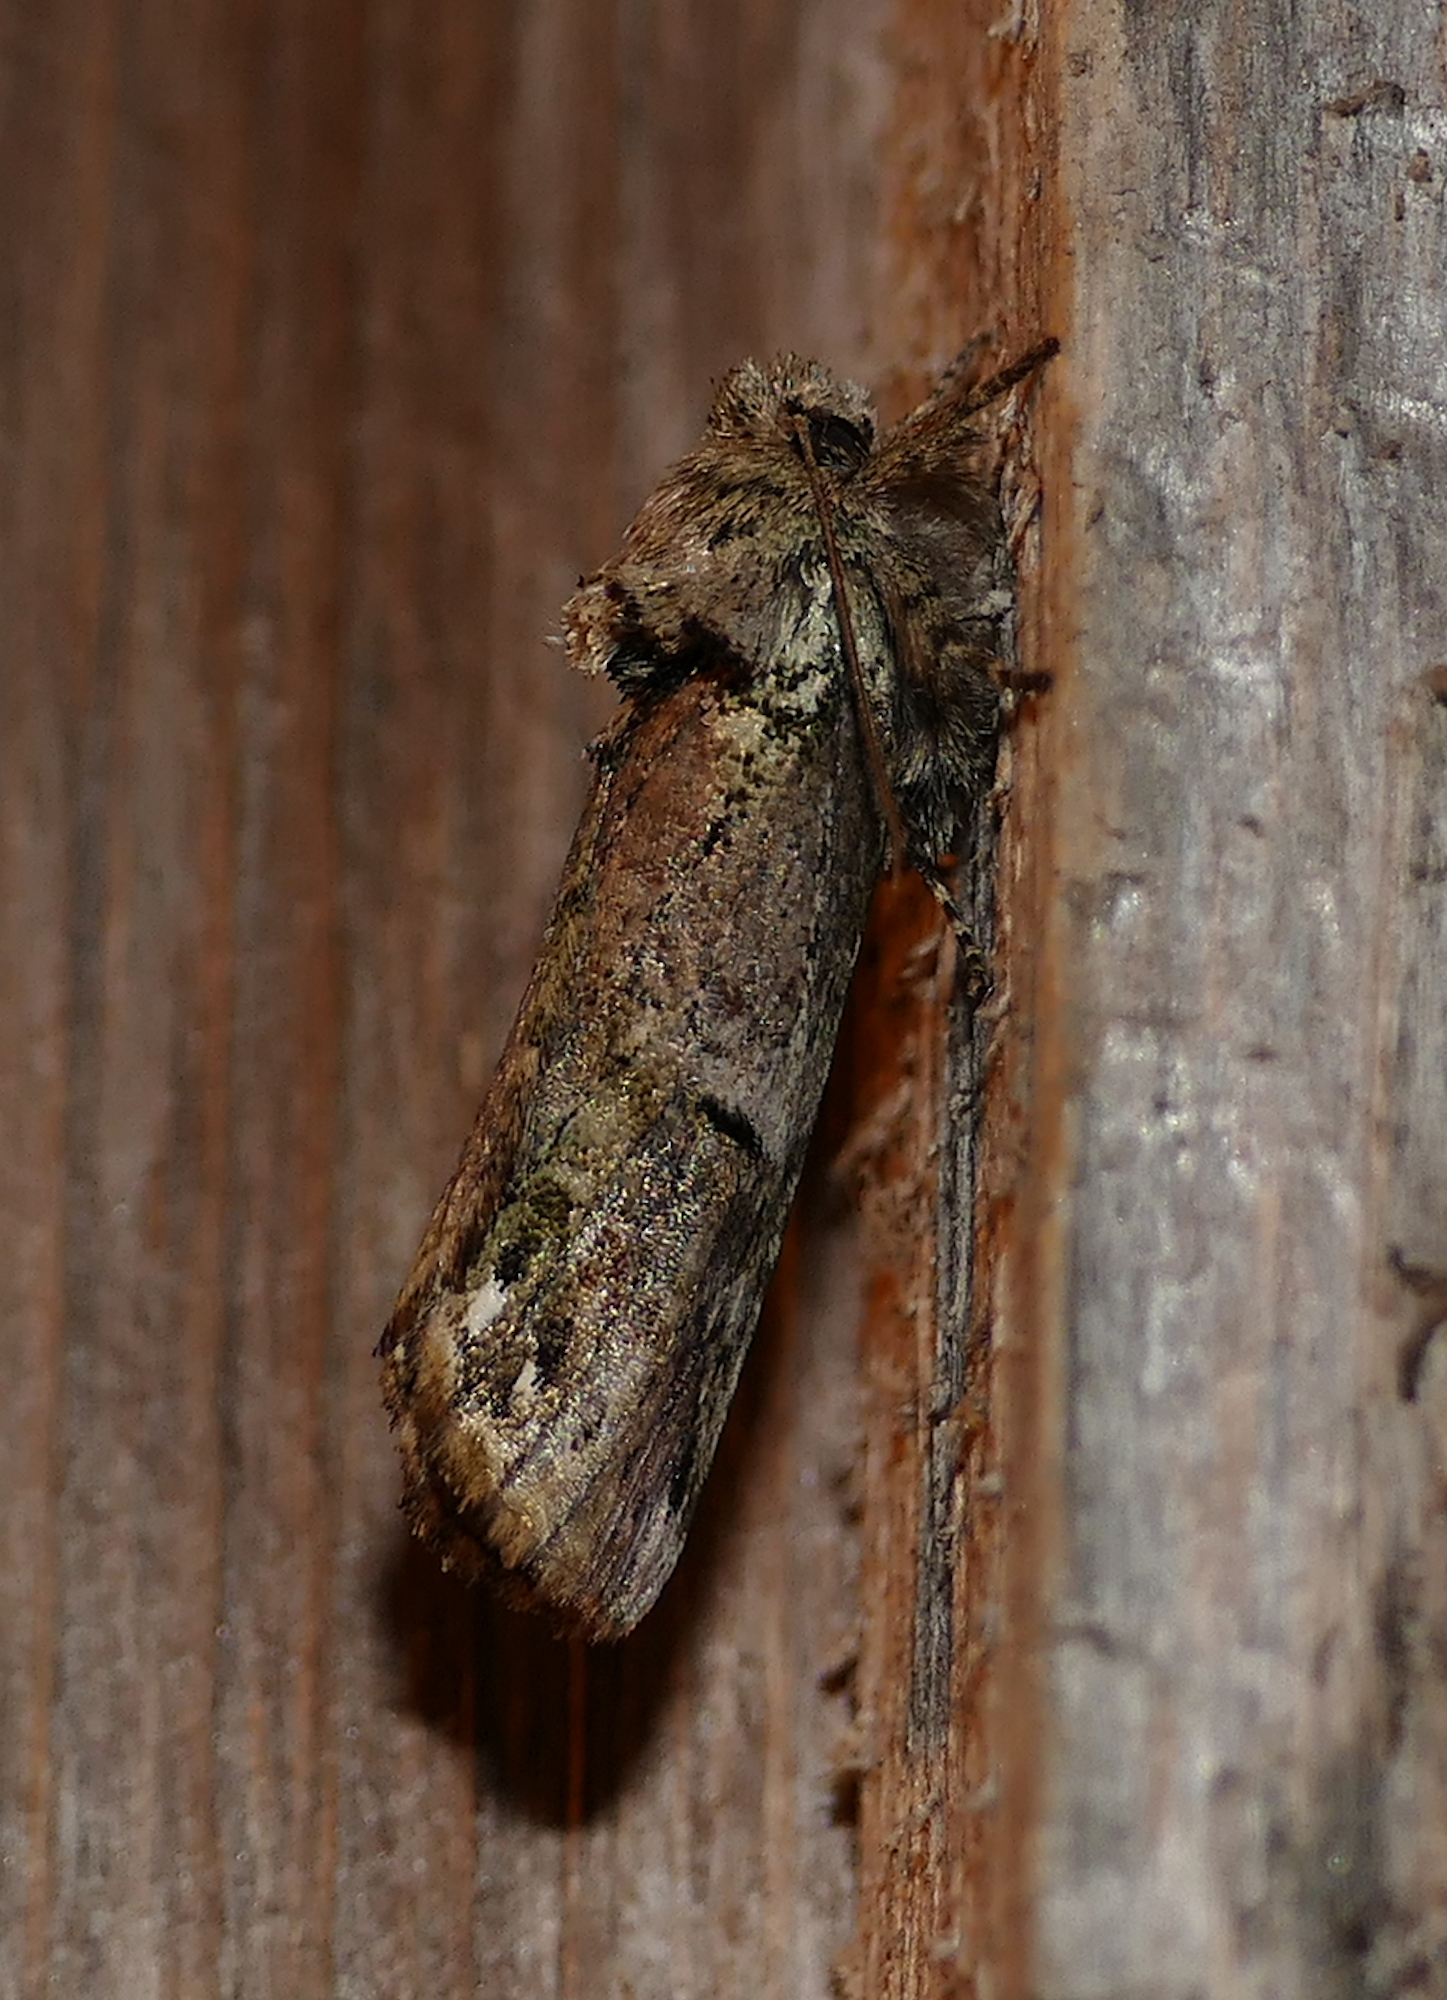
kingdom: Animalia
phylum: Arthropoda
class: Insecta
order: Lepidoptera
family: Notodontidae
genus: Schizura
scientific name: Schizura
